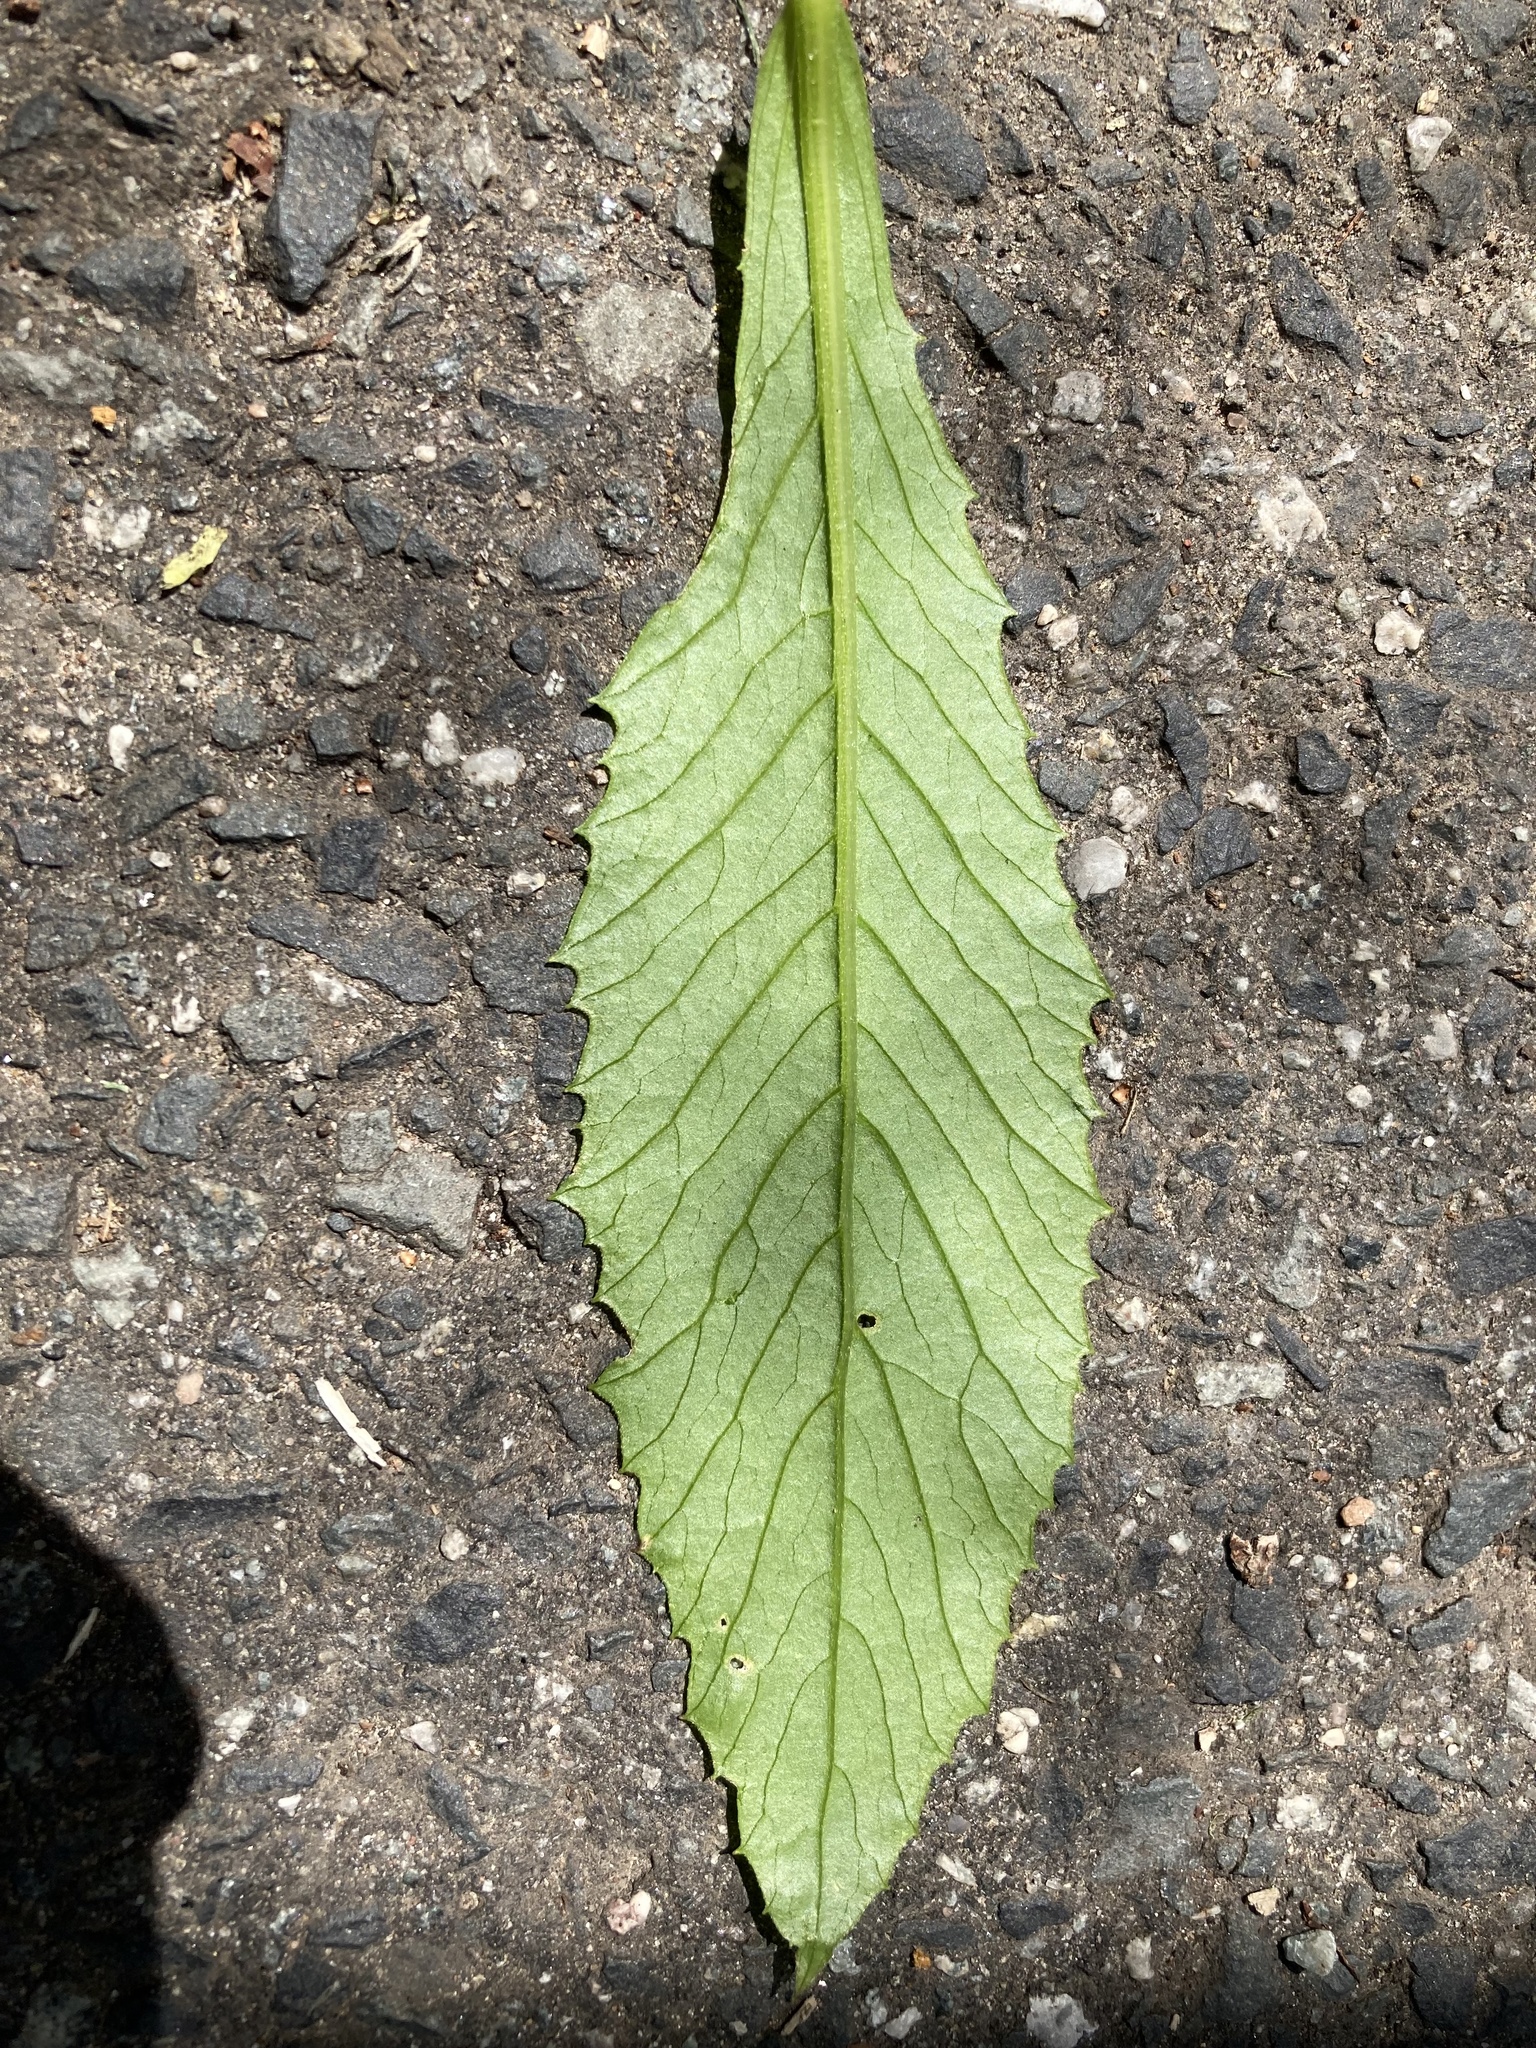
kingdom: Plantae
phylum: Tracheophyta
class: Magnoliopsida
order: Asterales
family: Asteraceae
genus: Erechtites
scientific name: Erechtites hieraciifolius
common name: American burnweed
